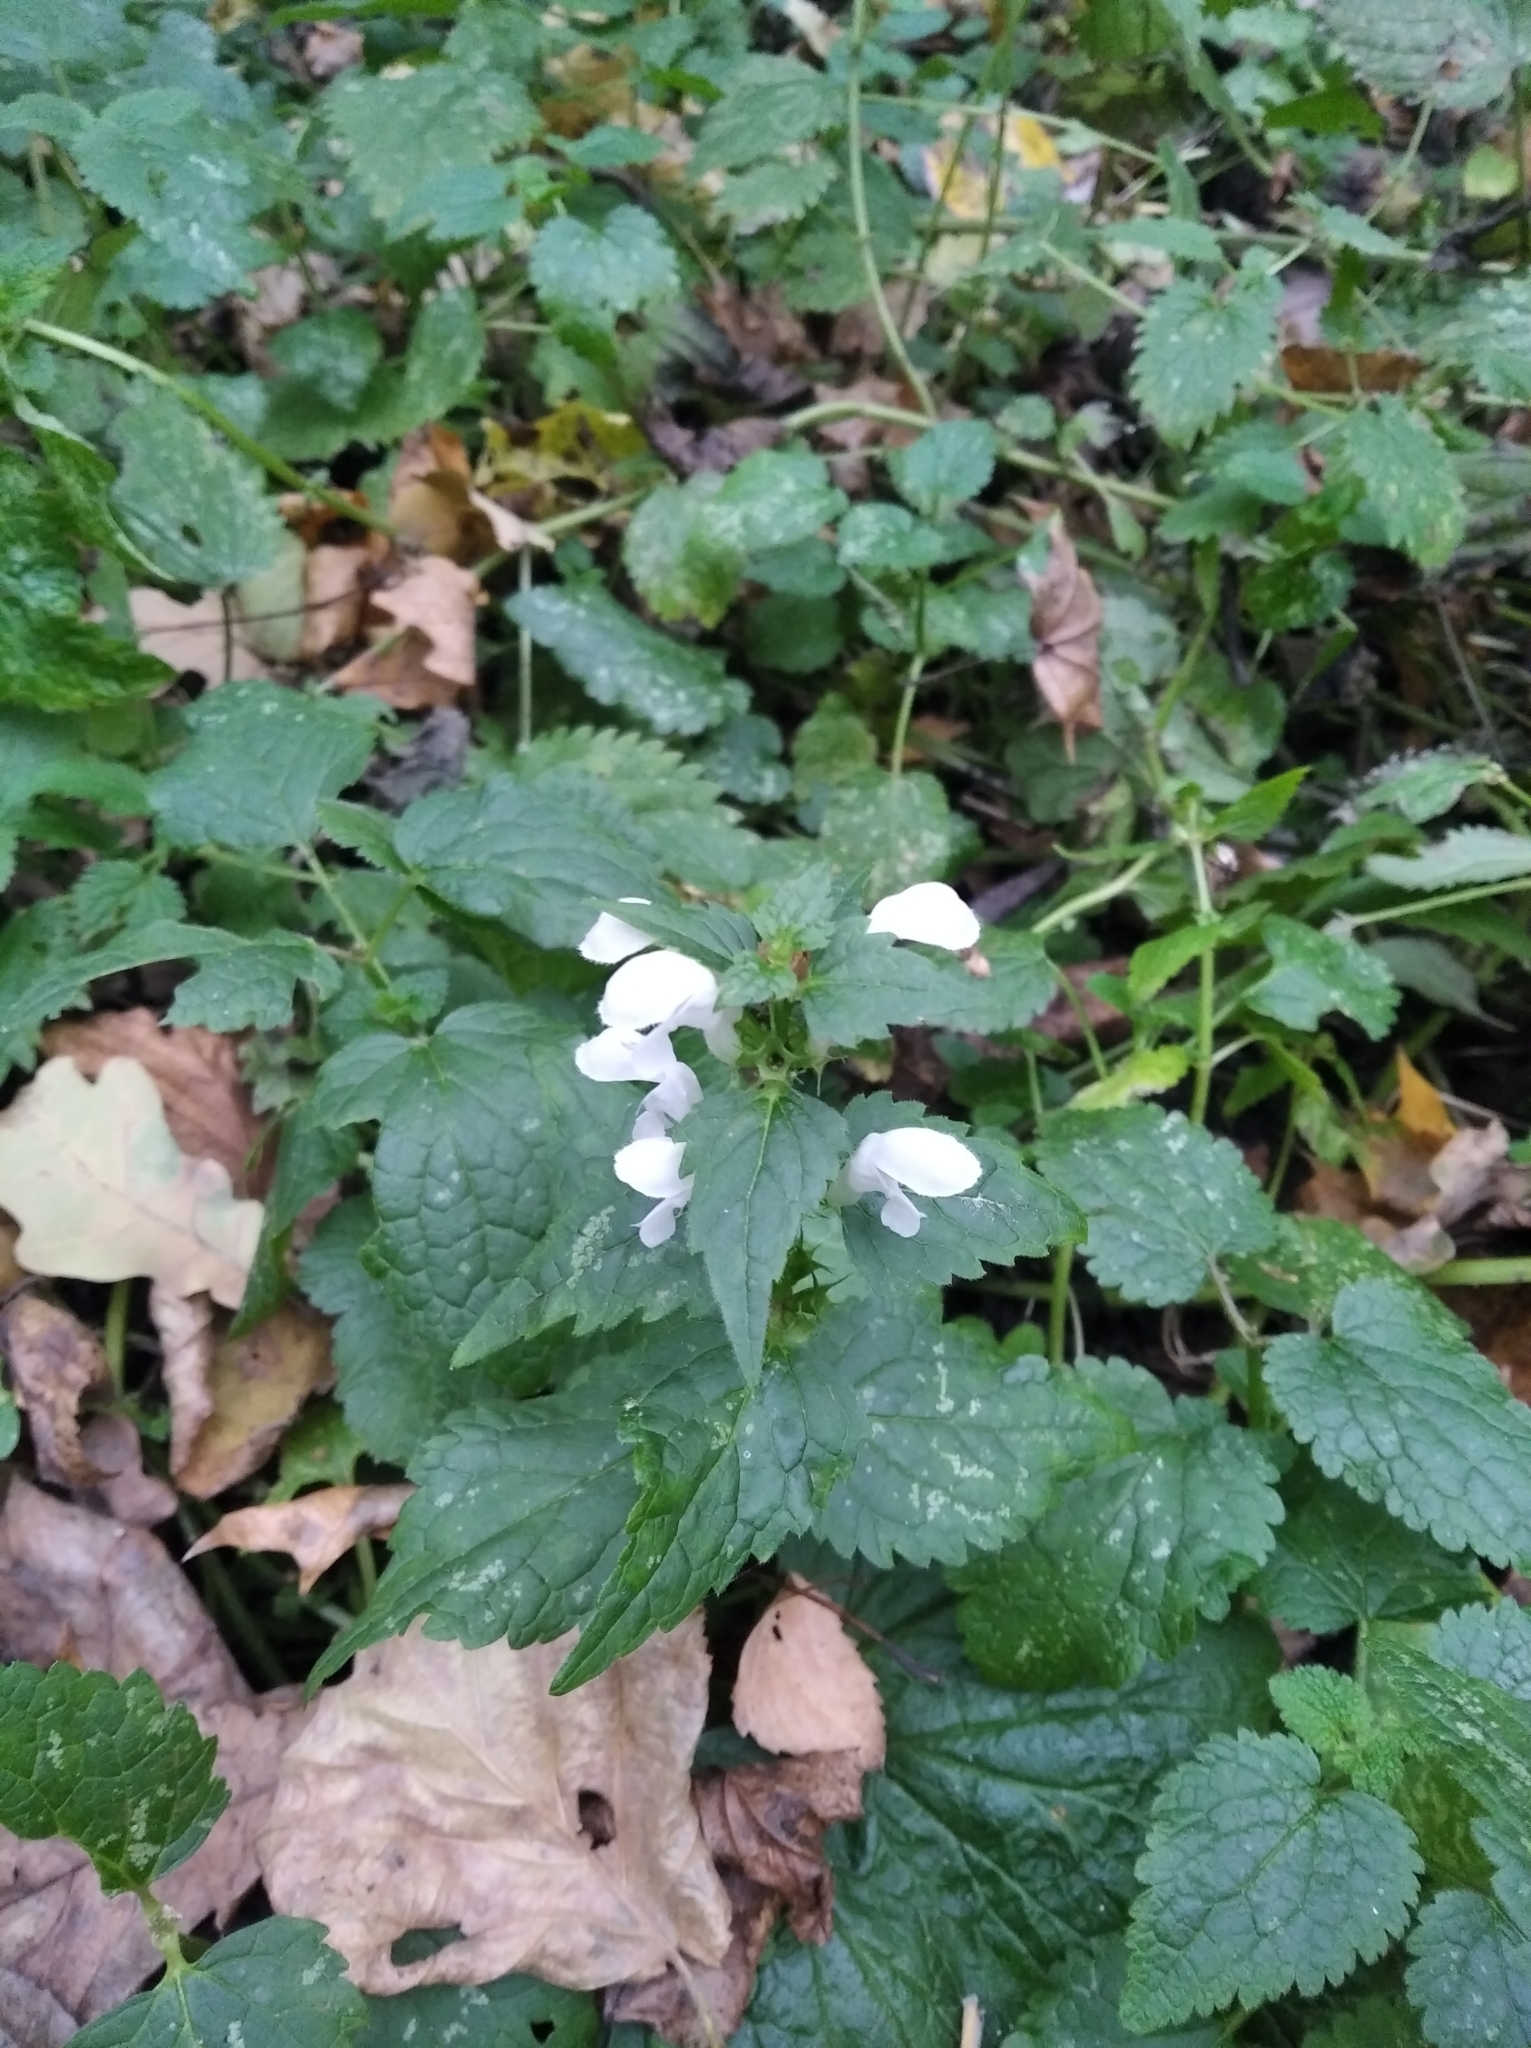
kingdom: Plantae
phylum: Tracheophyta
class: Magnoliopsida
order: Lamiales
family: Lamiaceae
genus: Lamium
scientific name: Lamium maculatum
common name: Spotted dead-nettle
